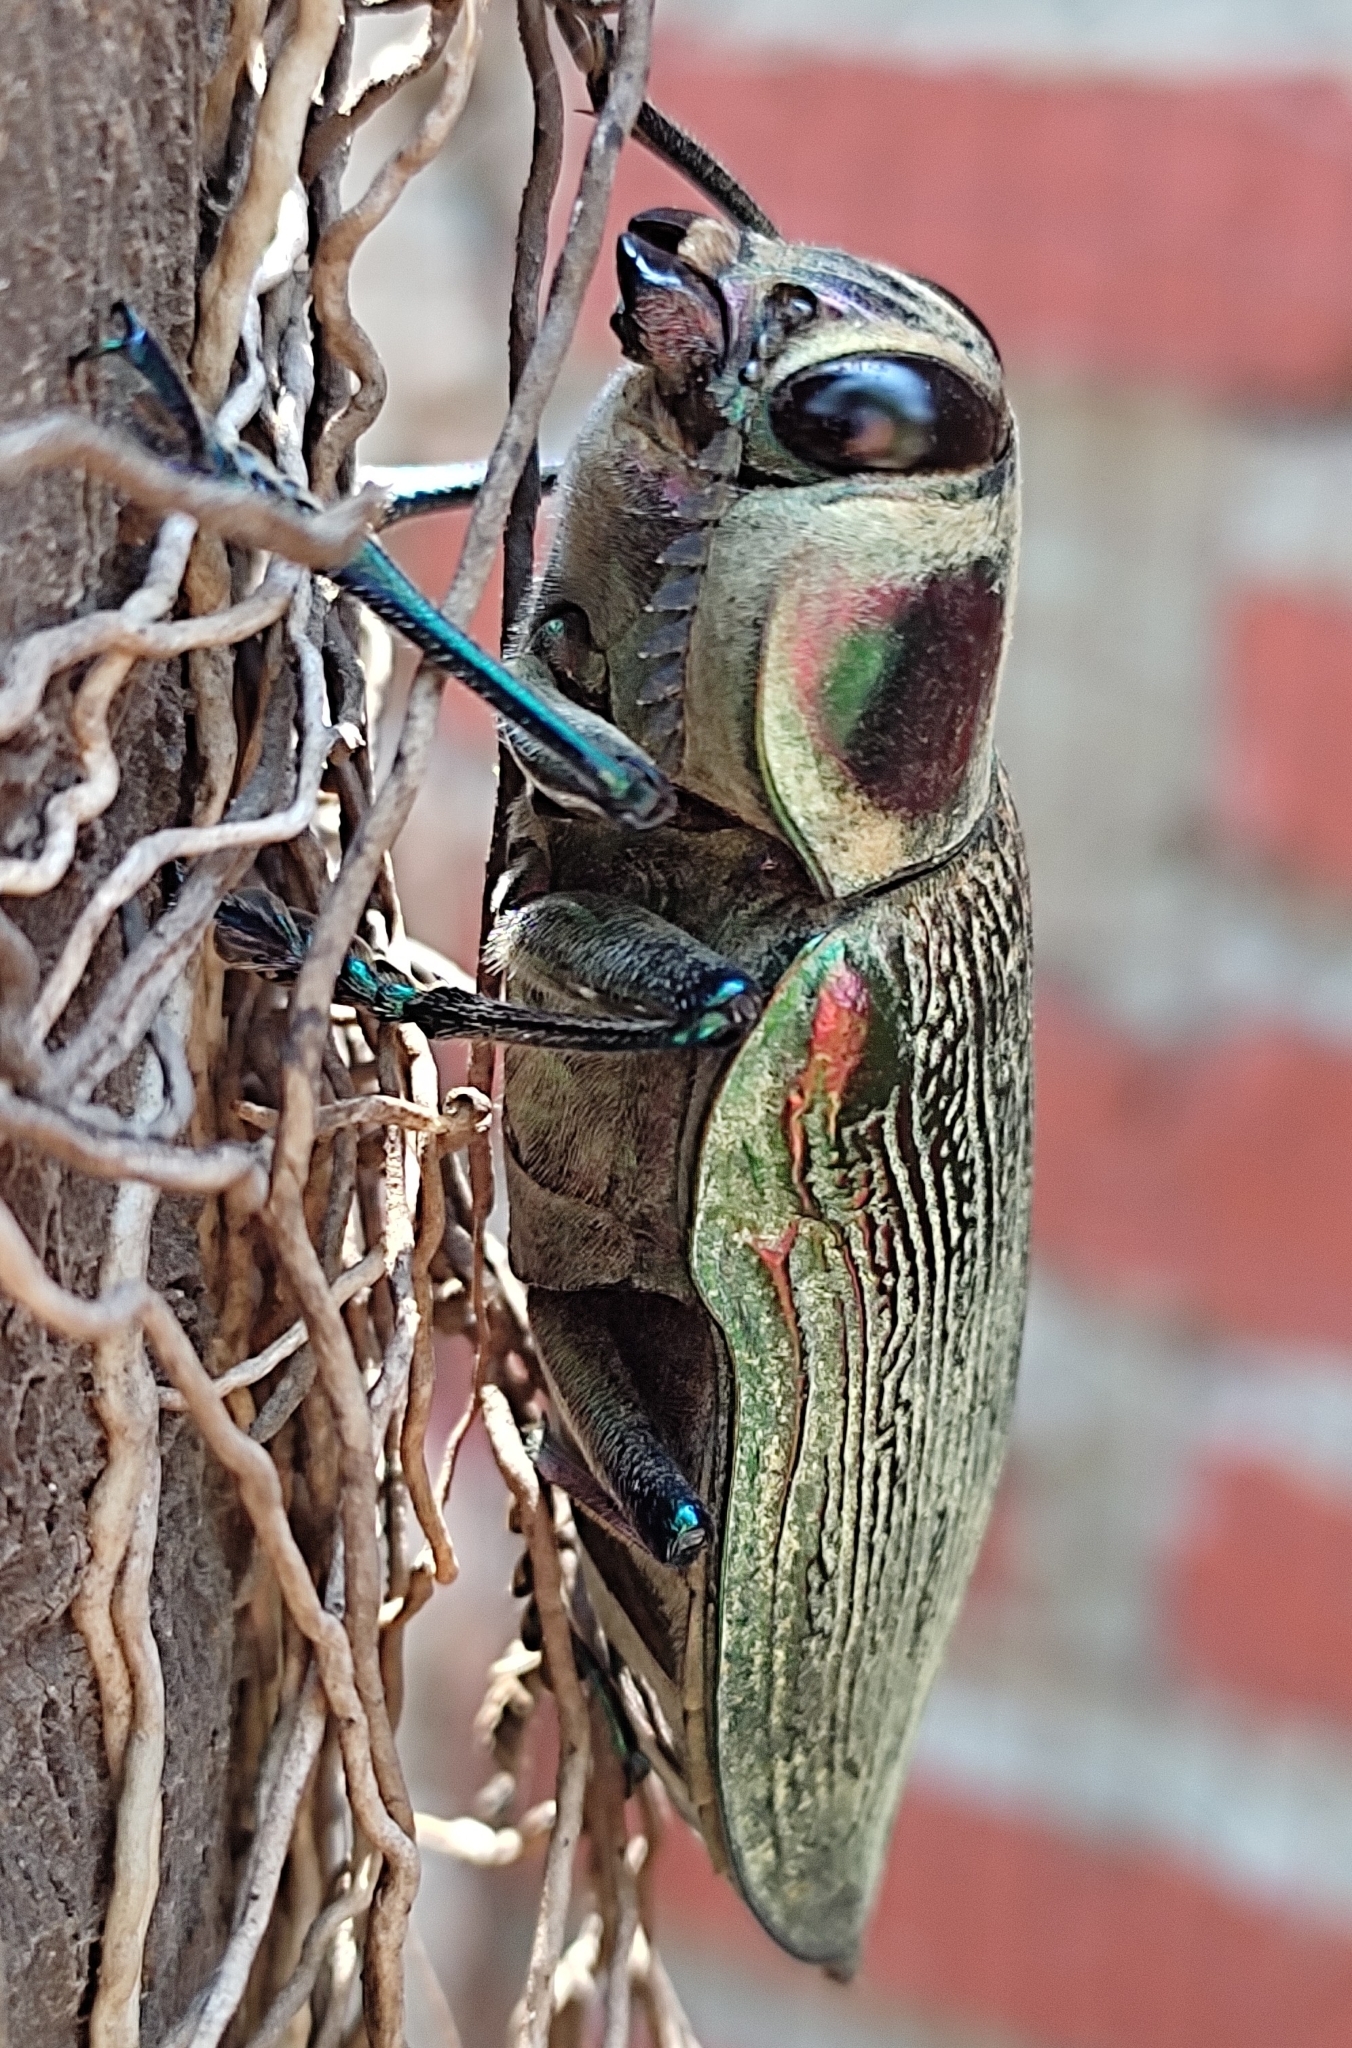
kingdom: Animalia
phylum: Arthropoda
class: Insecta
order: Coleoptera
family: Buprestidae
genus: Euchroma
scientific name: Euchroma giganteum
